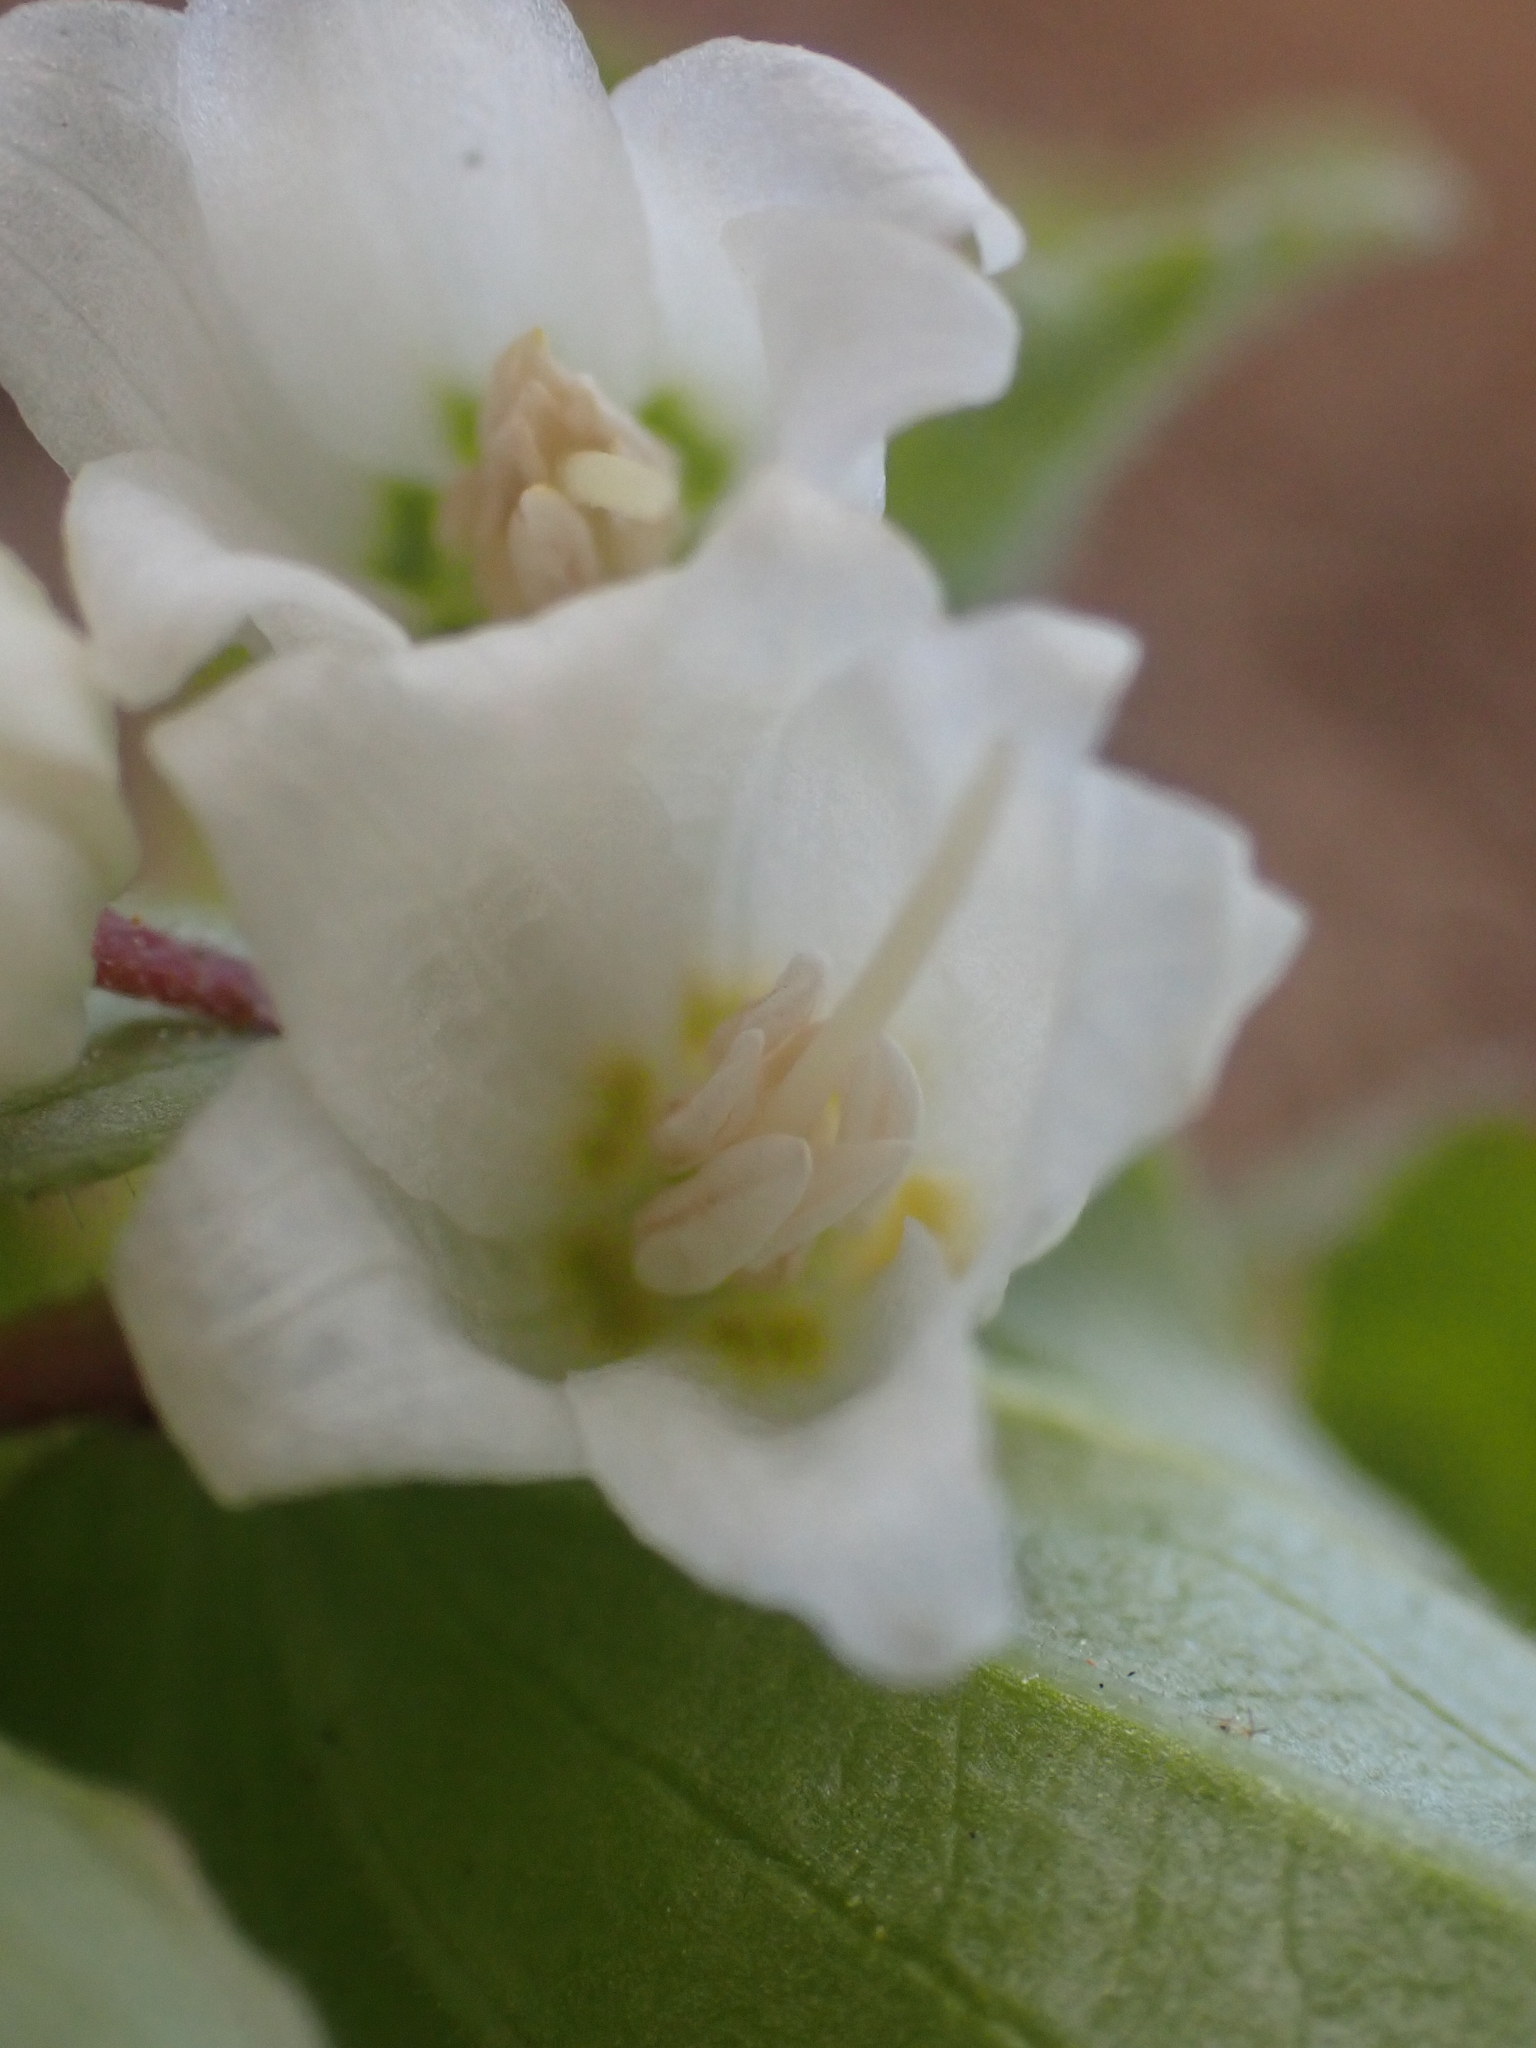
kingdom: Plantae
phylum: Tracheophyta
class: Liliopsida
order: Liliales
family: Liliaceae
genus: Prosartes
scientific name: Prosartes parvifolia
